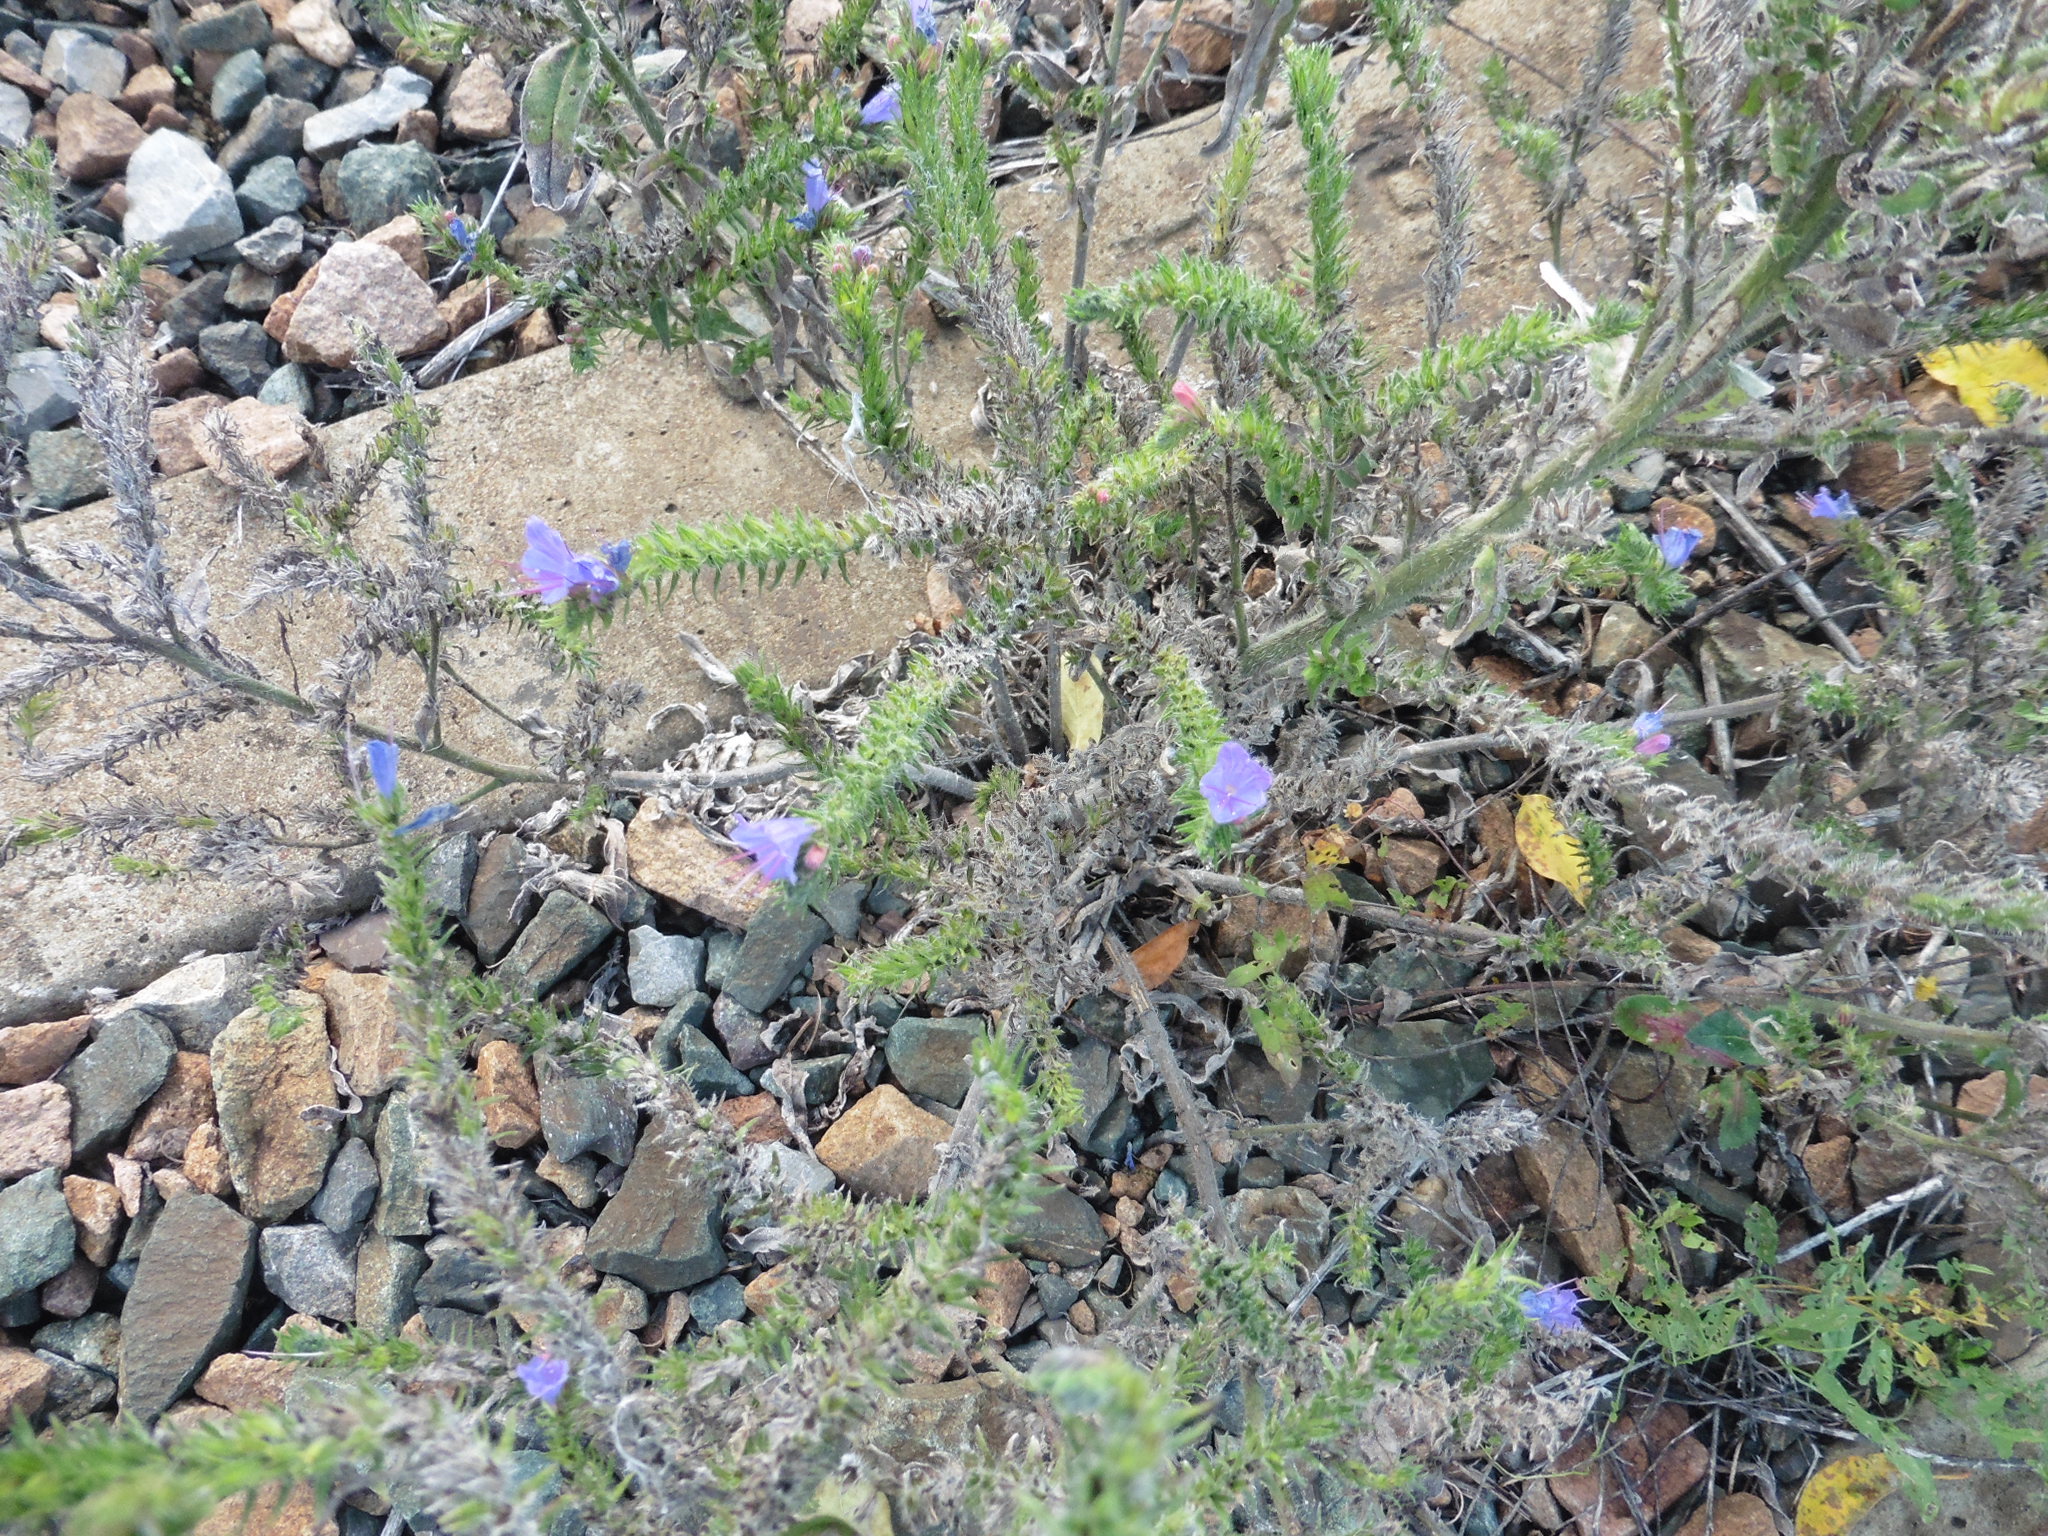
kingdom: Plantae
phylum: Tracheophyta
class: Magnoliopsida
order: Boraginales
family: Boraginaceae
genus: Echium
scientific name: Echium vulgare
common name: Common viper's bugloss
